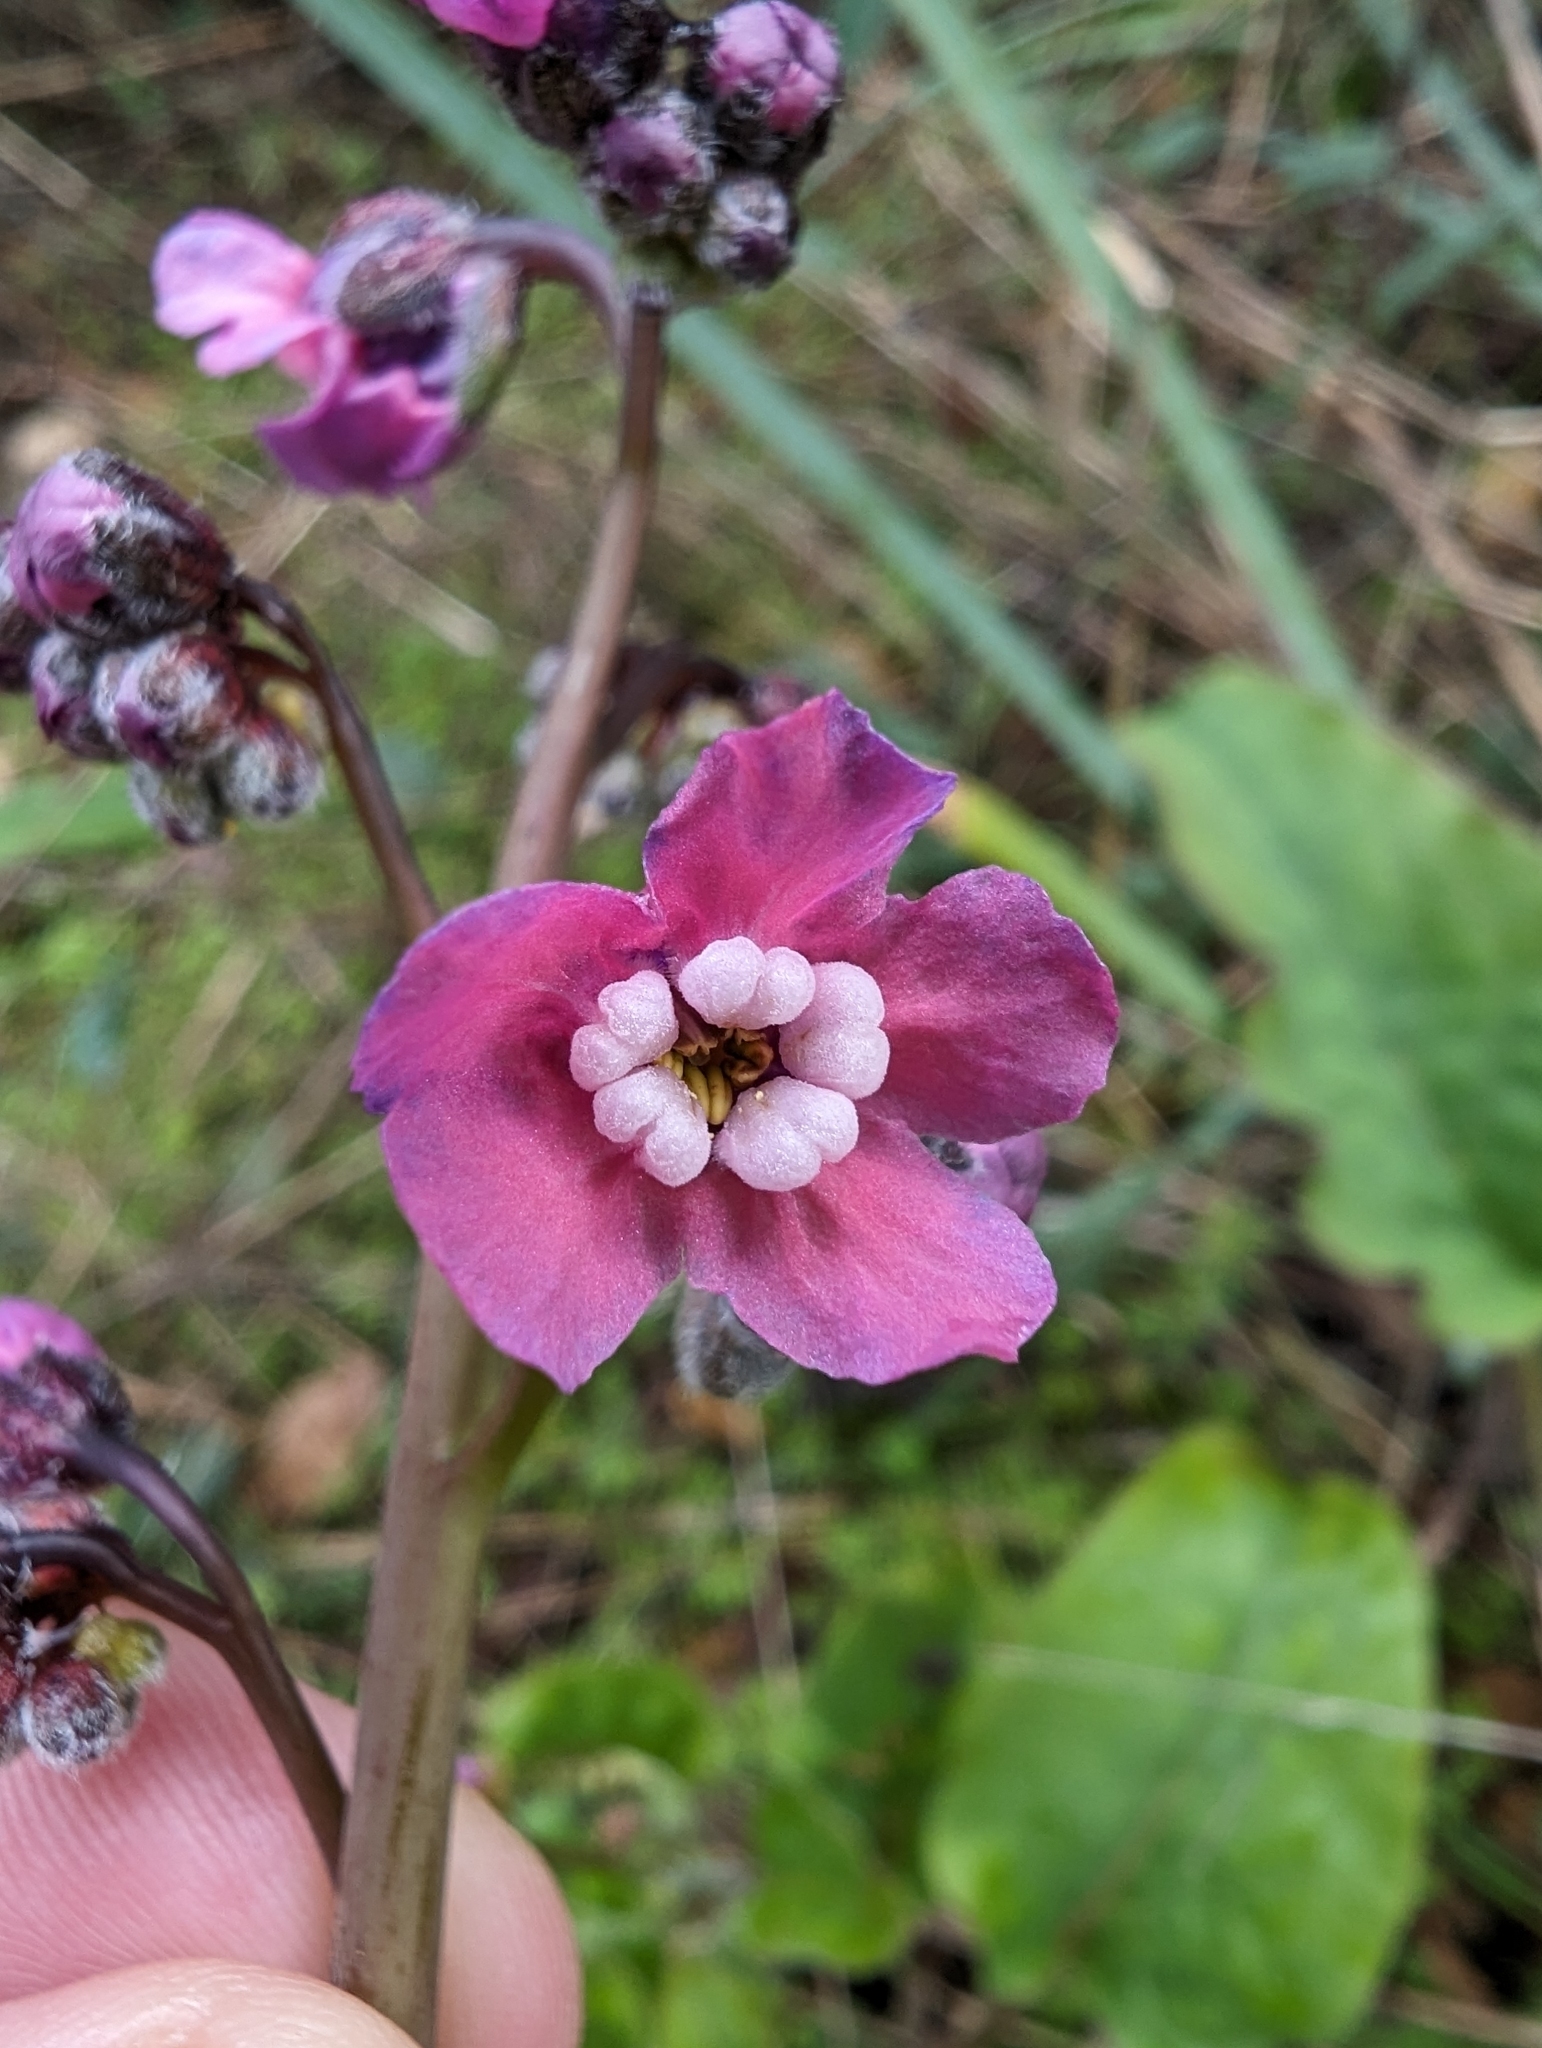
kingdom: Plantae
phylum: Tracheophyta
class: Magnoliopsida
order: Boraginales
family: Boraginaceae
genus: Adelinia
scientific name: Adelinia grande
